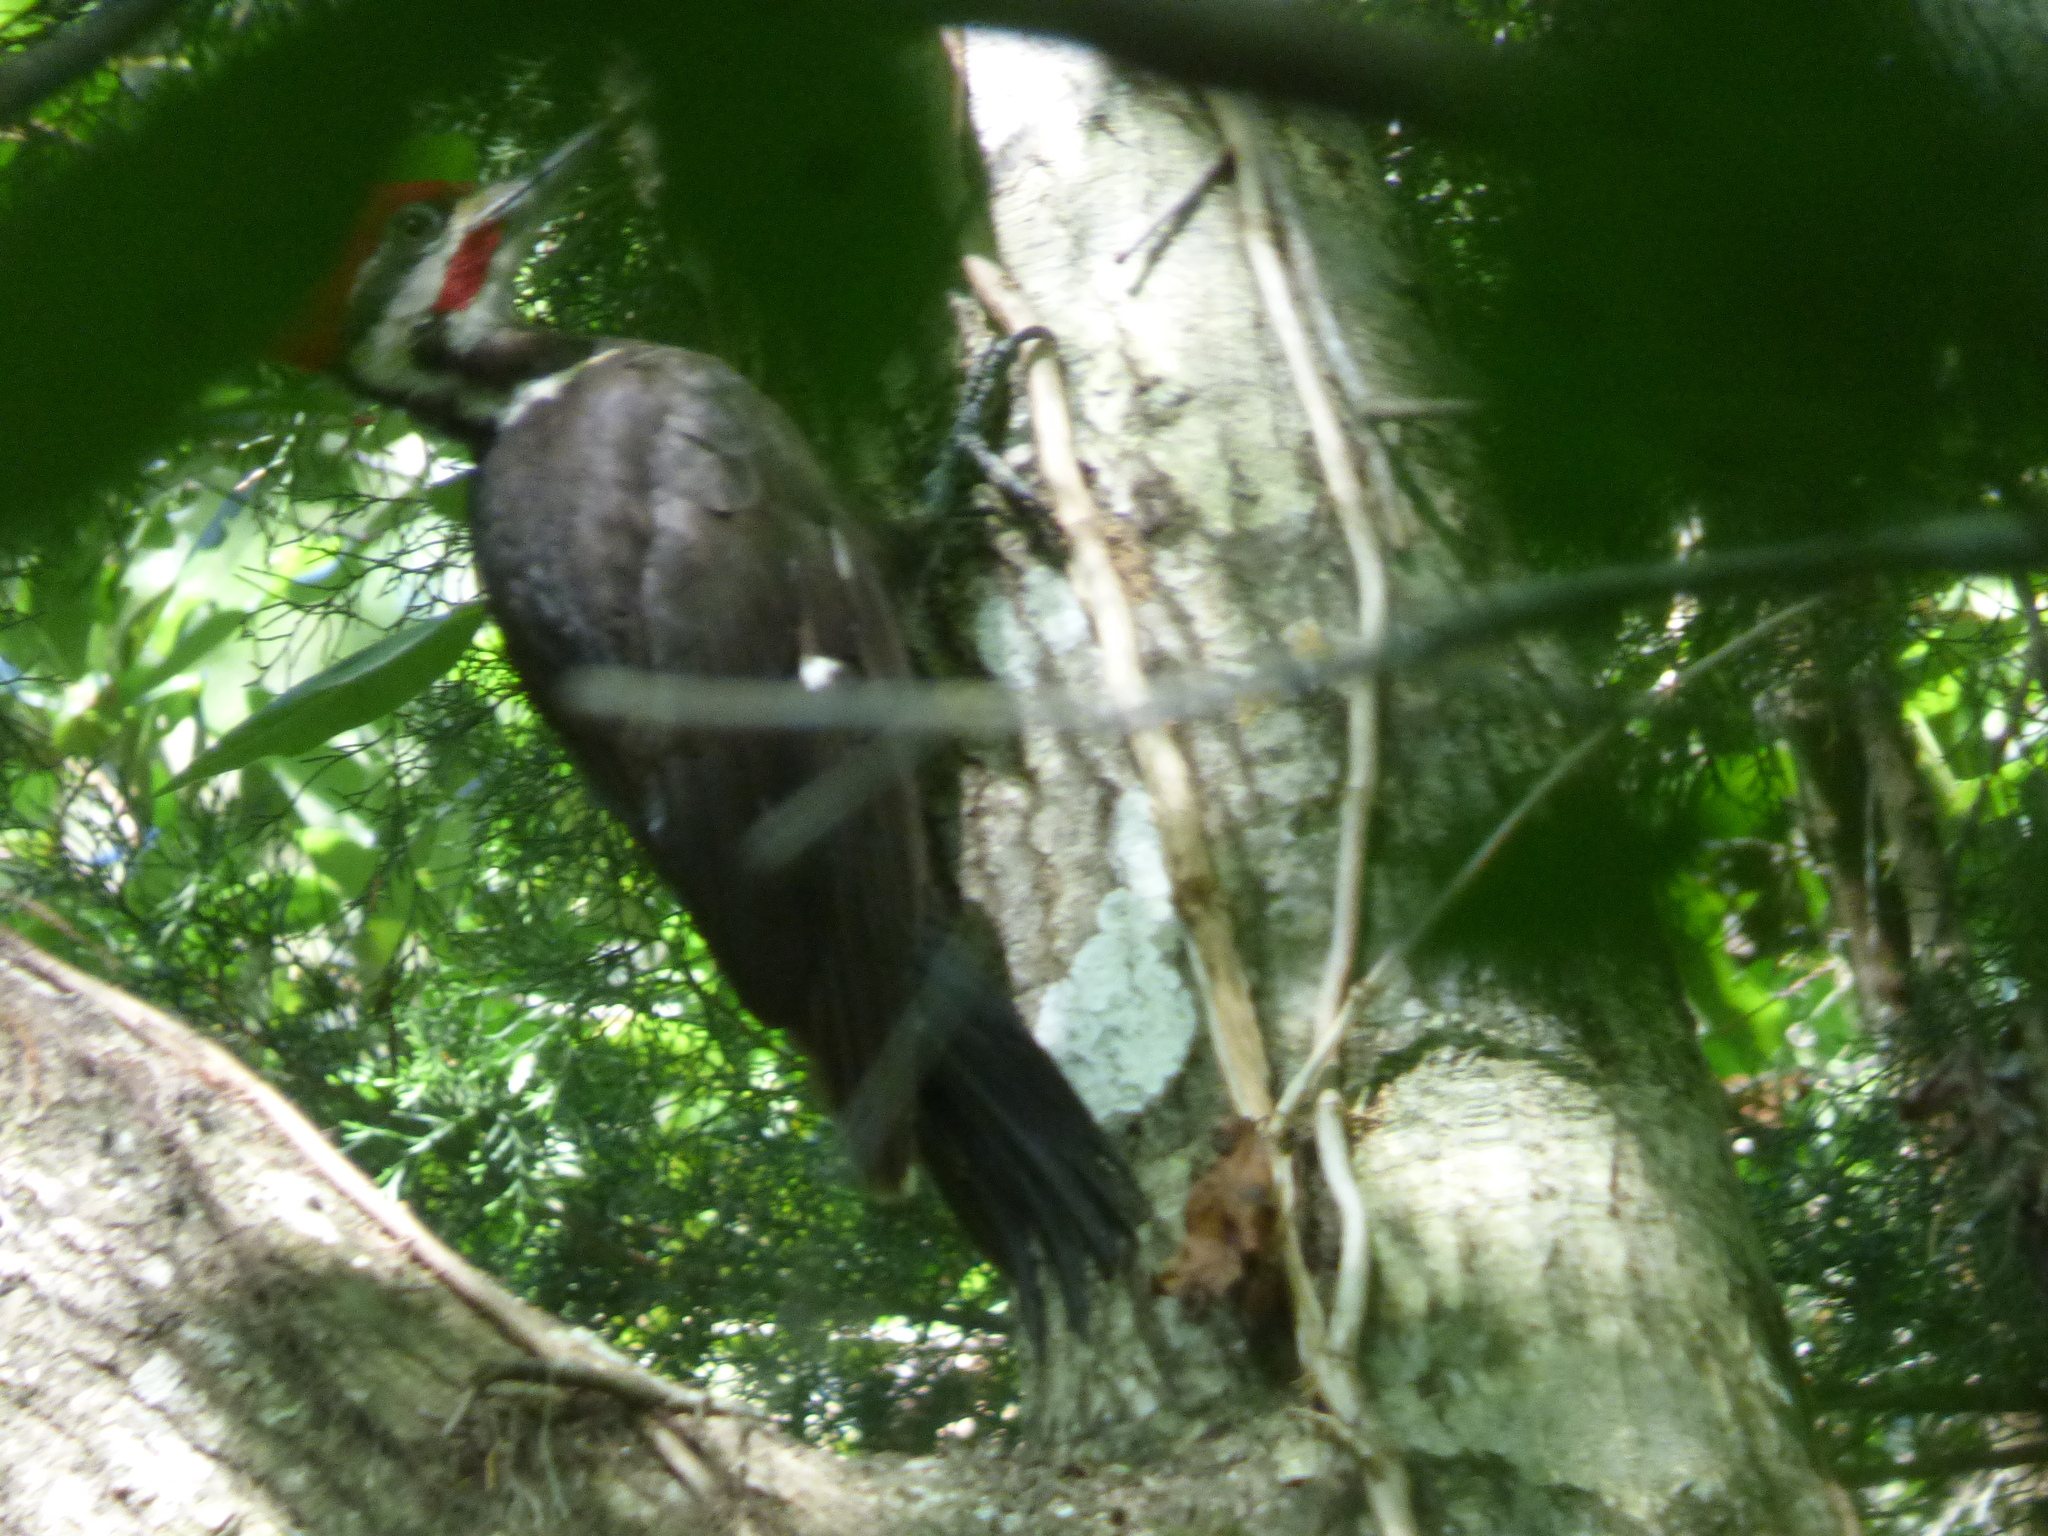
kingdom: Animalia
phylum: Chordata
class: Aves
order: Piciformes
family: Picidae
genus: Dryocopus
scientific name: Dryocopus pileatus
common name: Pileated woodpecker
